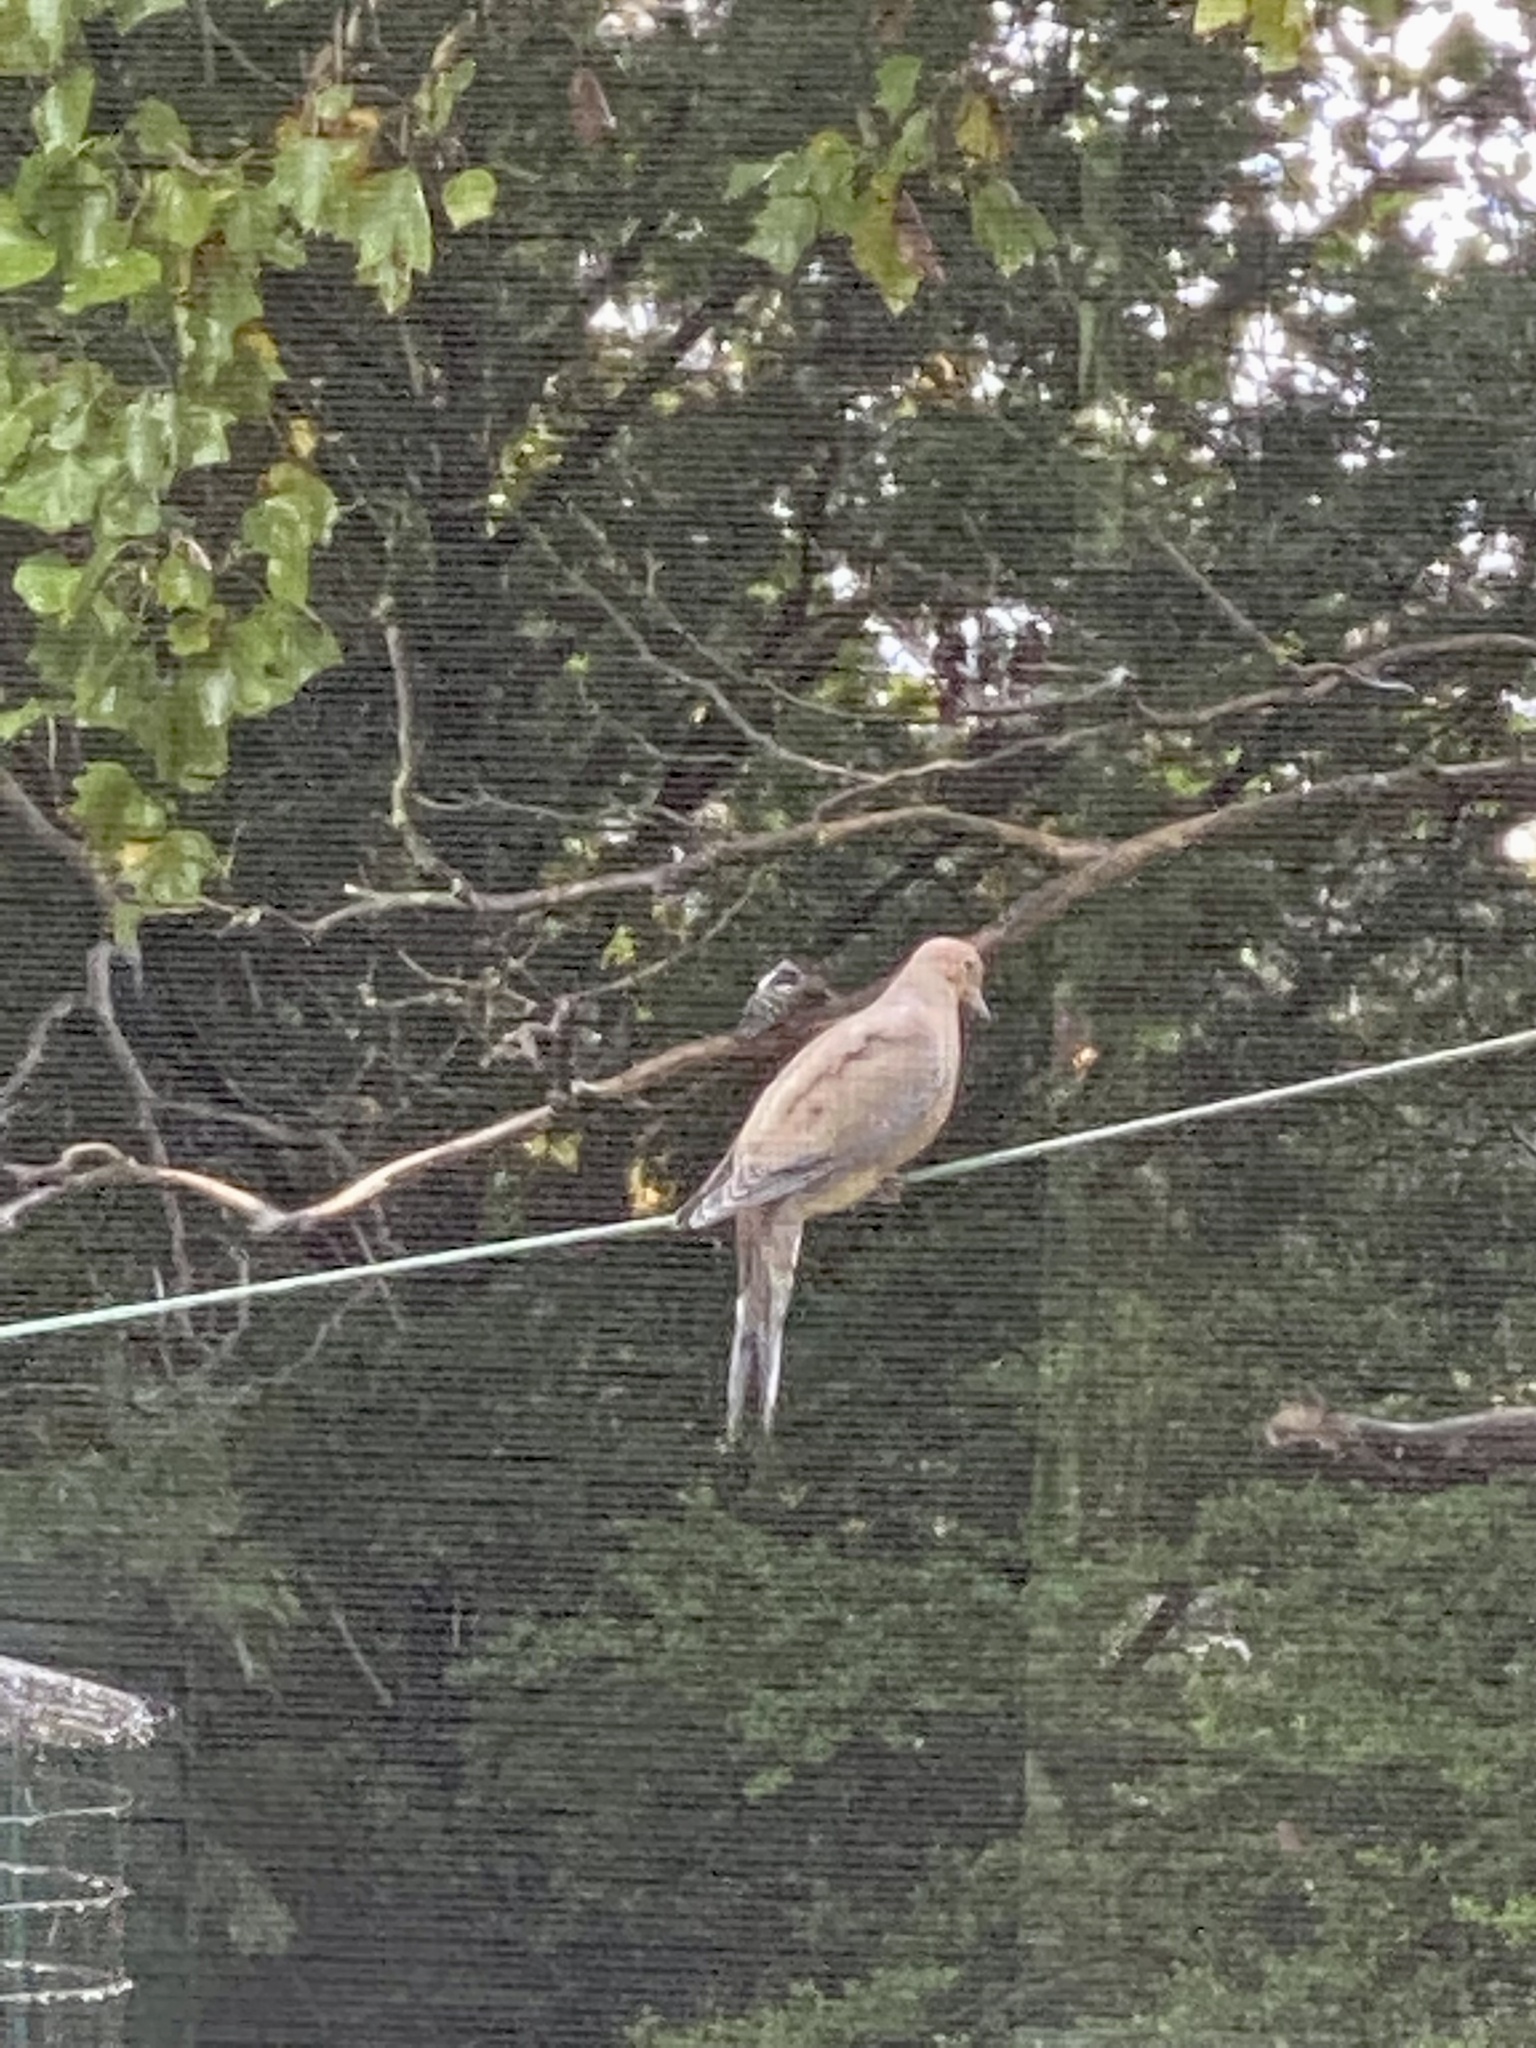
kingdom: Animalia
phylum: Chordata
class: Aves
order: Columbiformes
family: Columbidae
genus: Zenaida
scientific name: Zenaida macroura
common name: Mourning dove
